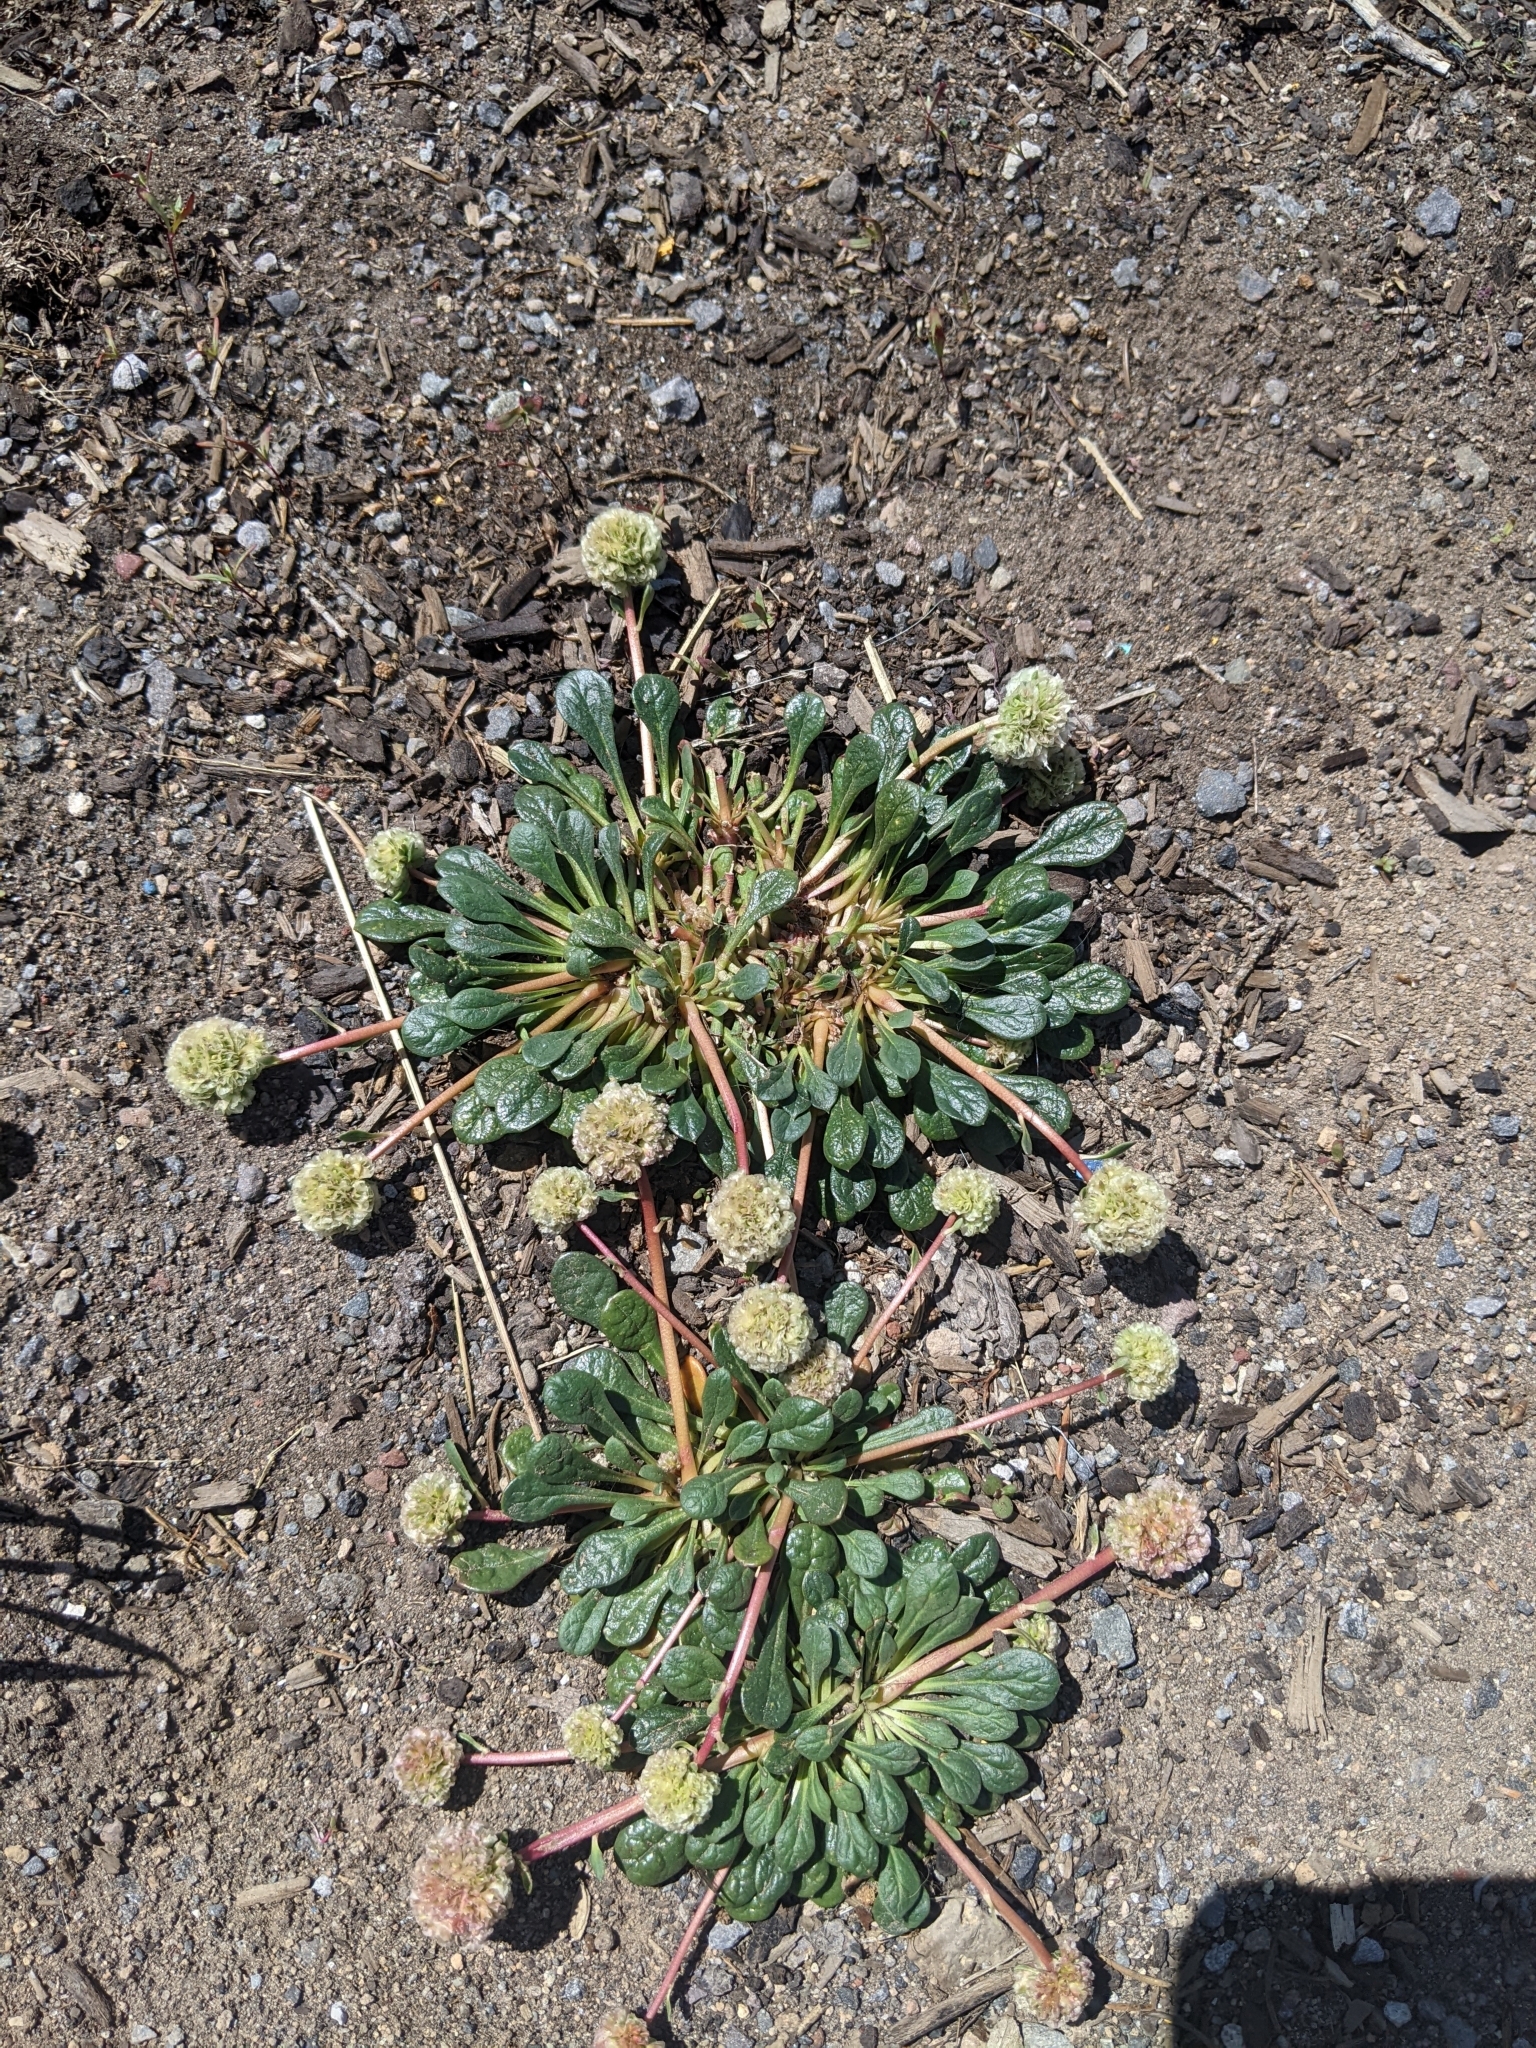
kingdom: Plantae
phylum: Tracheophyta
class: Magnoliopsida
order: Caryophyllales
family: Montiaceae
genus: Calyptridium
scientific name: Calyptridium monospermum
